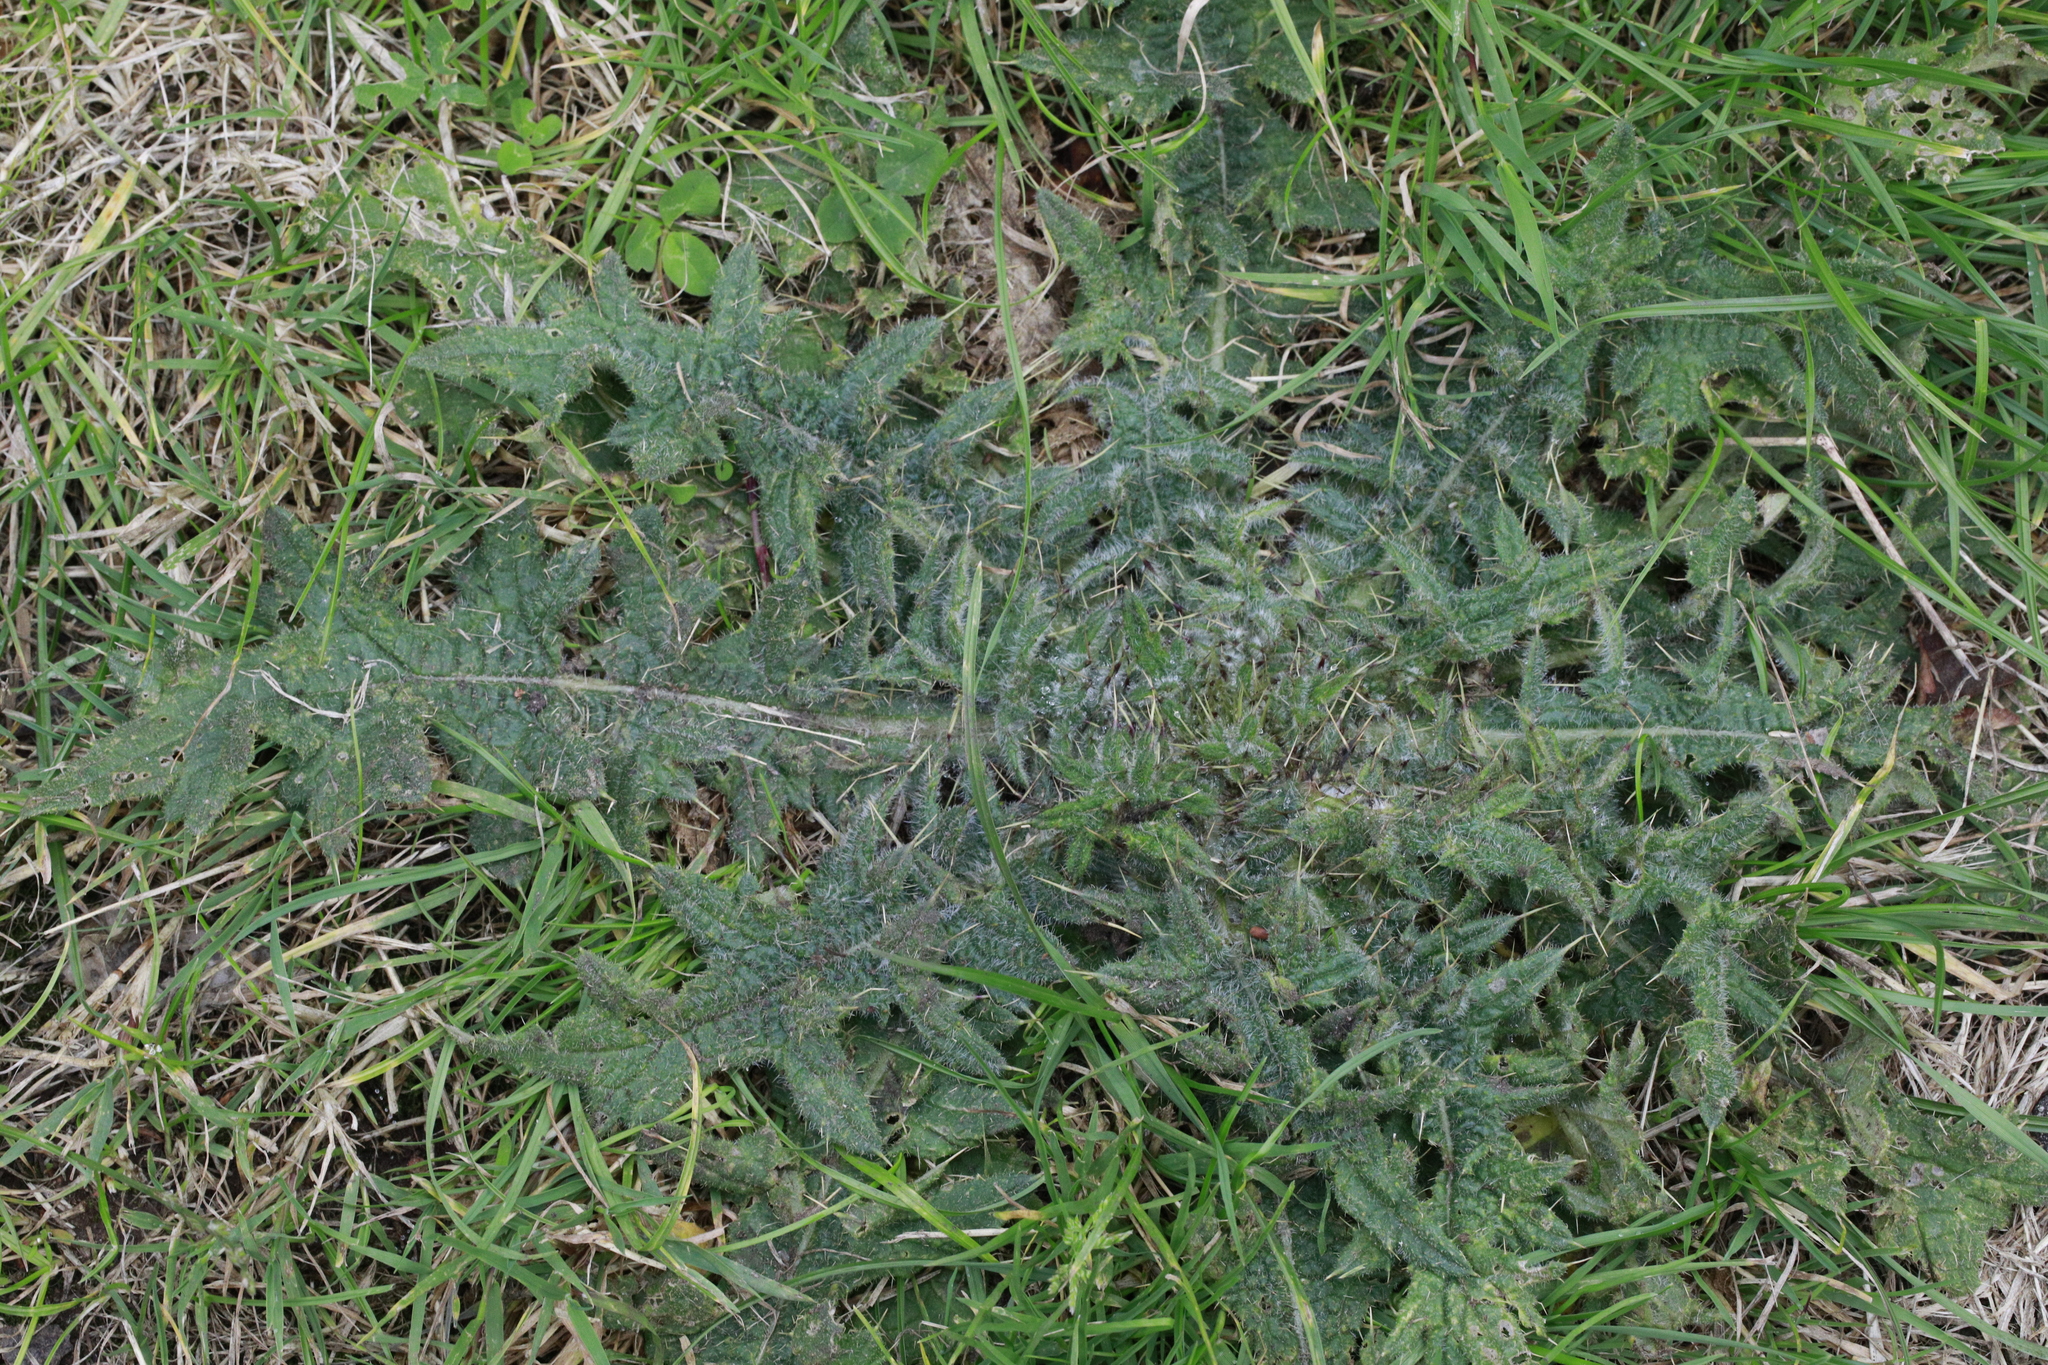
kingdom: Plantae
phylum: Tracheophyta
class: Magnoliopsida
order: Asterales
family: Asteraceae
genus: Cirsium
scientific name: Cirsium vulgare
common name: Bull thistle
